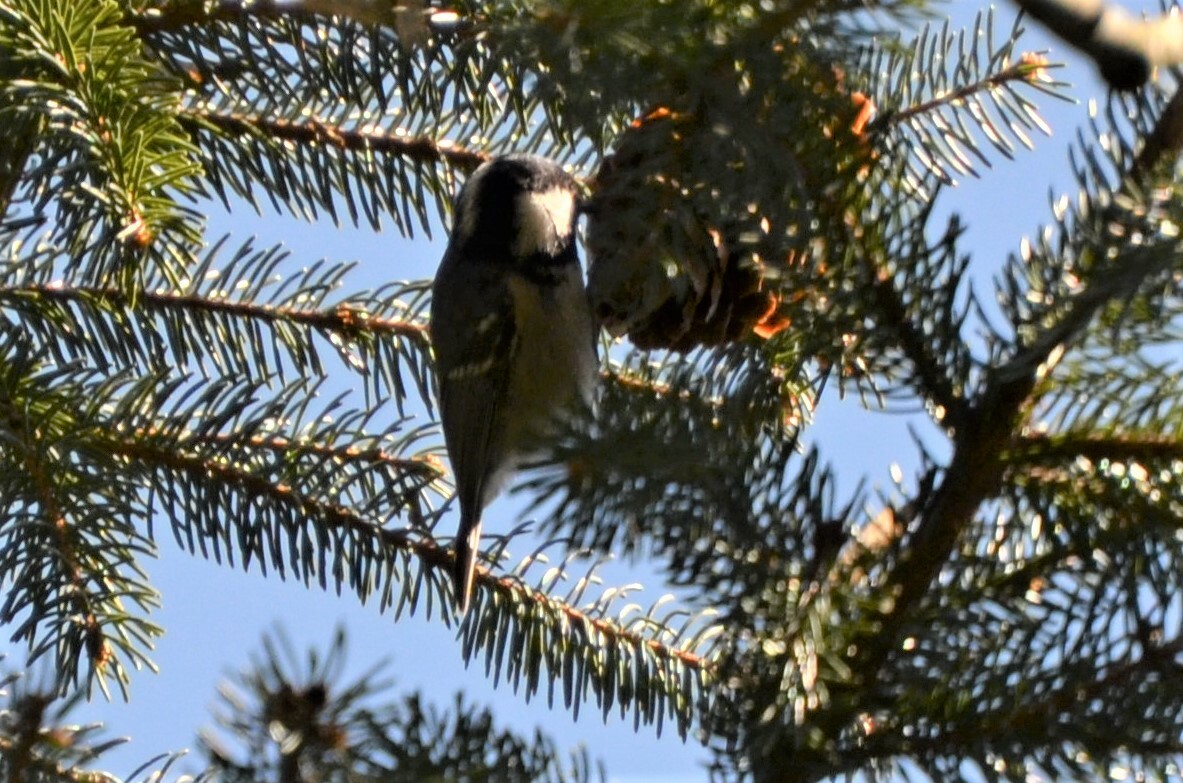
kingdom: Animalia
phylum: Chordata
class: Aves
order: Passeriformes
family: Paridae
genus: Periparus
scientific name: Periparus ater
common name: Coal tit
